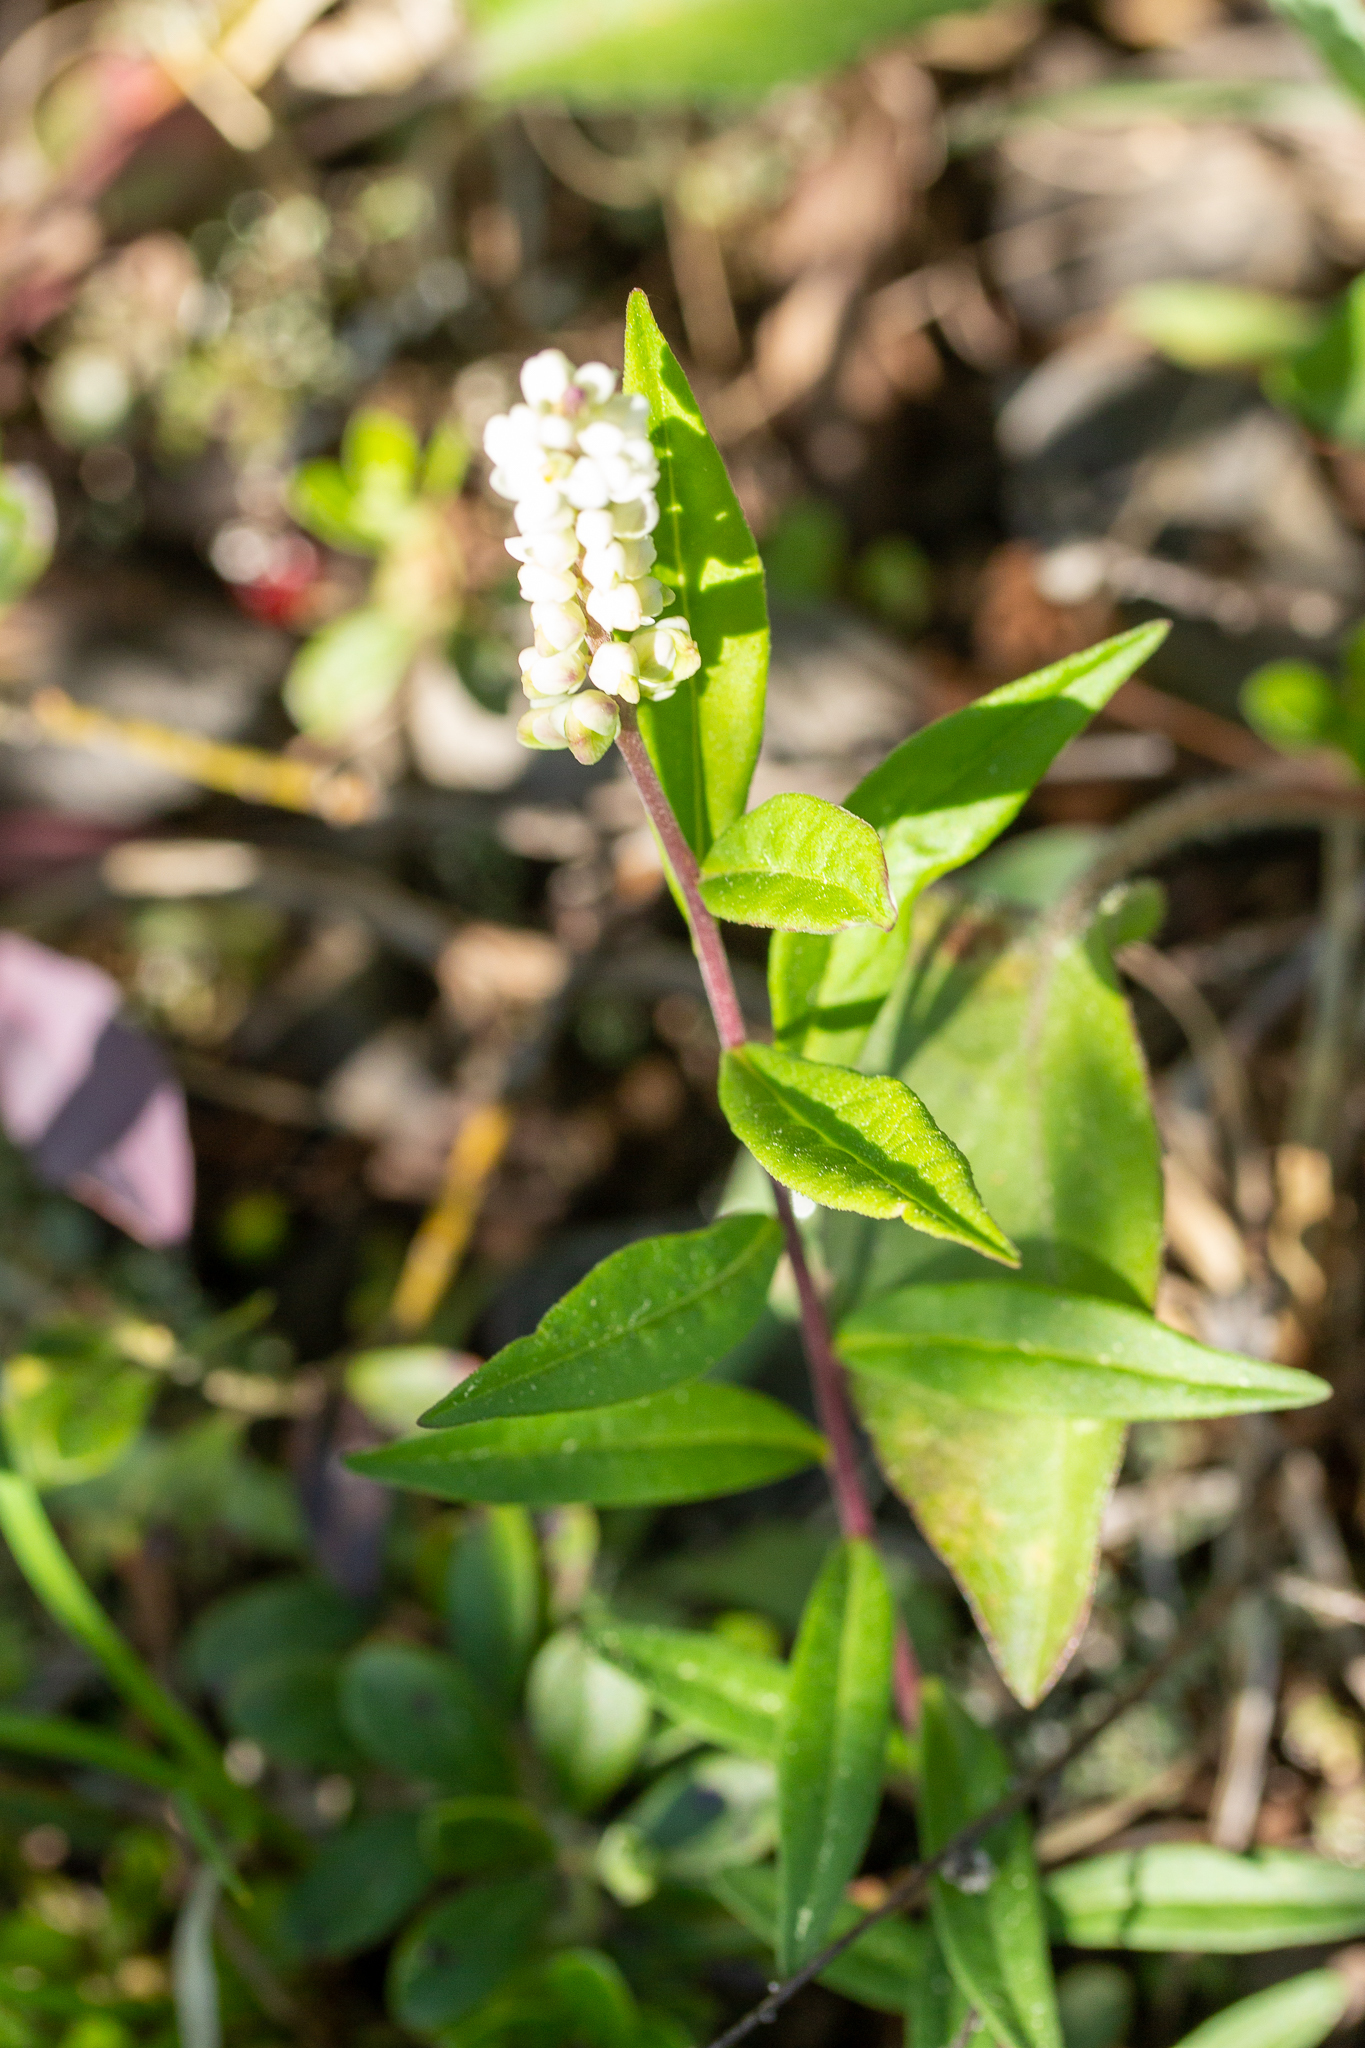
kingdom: Plantae
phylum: Tracheophyta
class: Magnoliopsida
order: Fabales
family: Polygalaceae
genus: Polygala
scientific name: Polygala senega
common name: Seneca snakeroot
